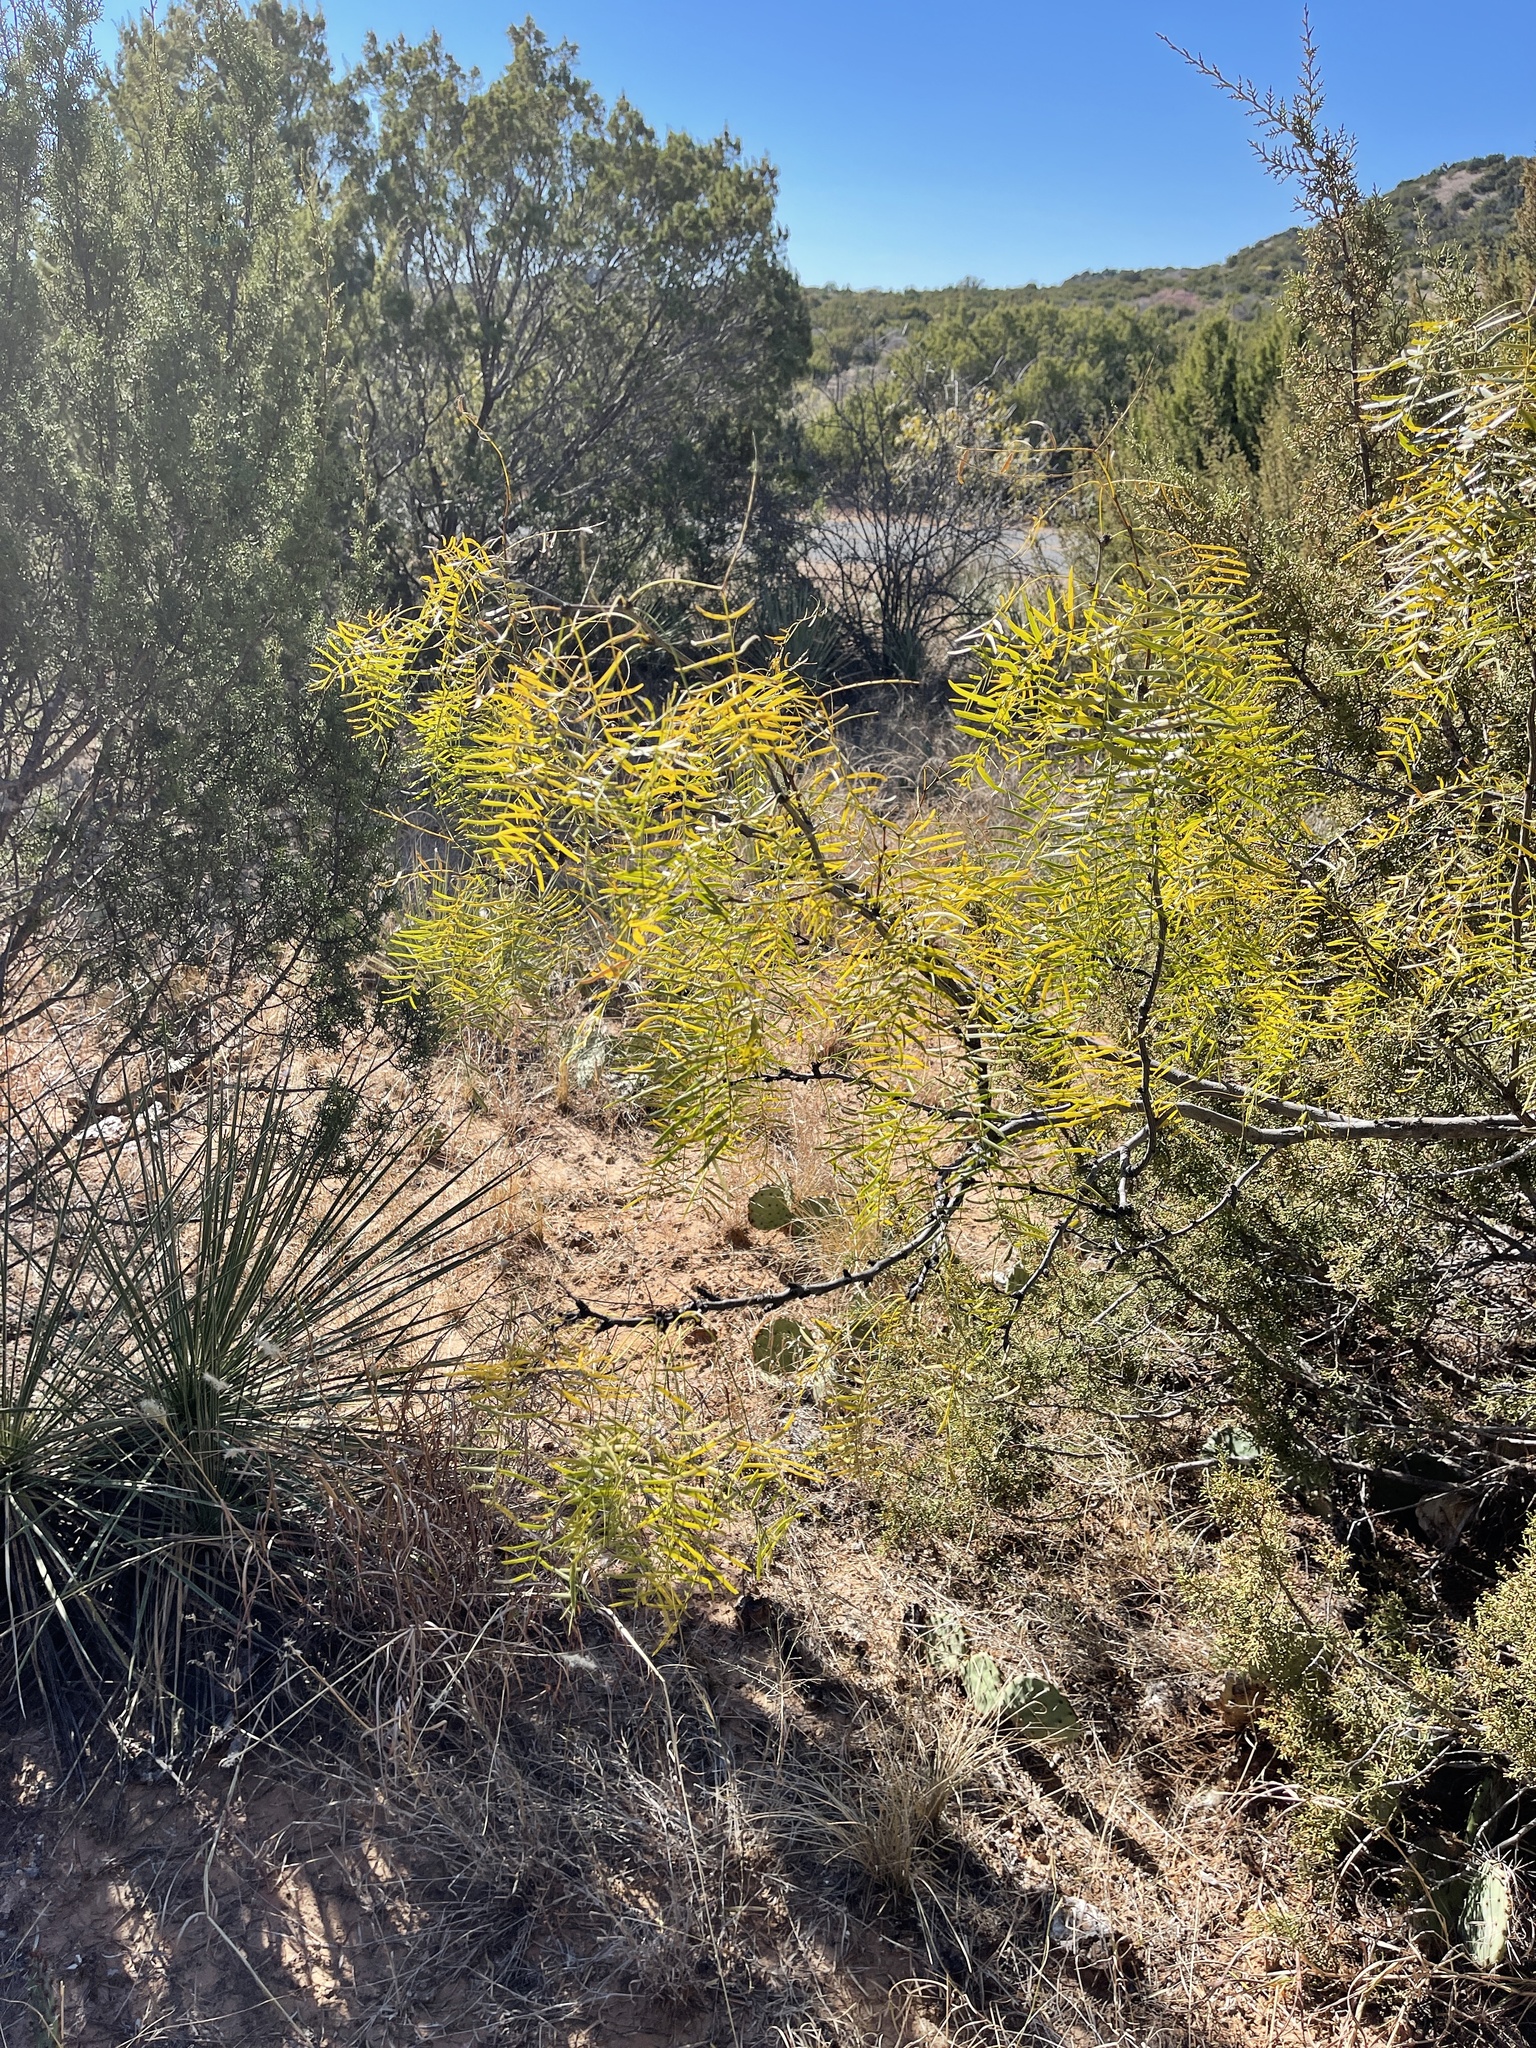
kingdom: Plantae
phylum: Tracheophyta
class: Magnoliopsida
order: Fabales
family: Fabaceae
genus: Prosopis
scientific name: Prosopis glandulosa
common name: Honey mesquite
